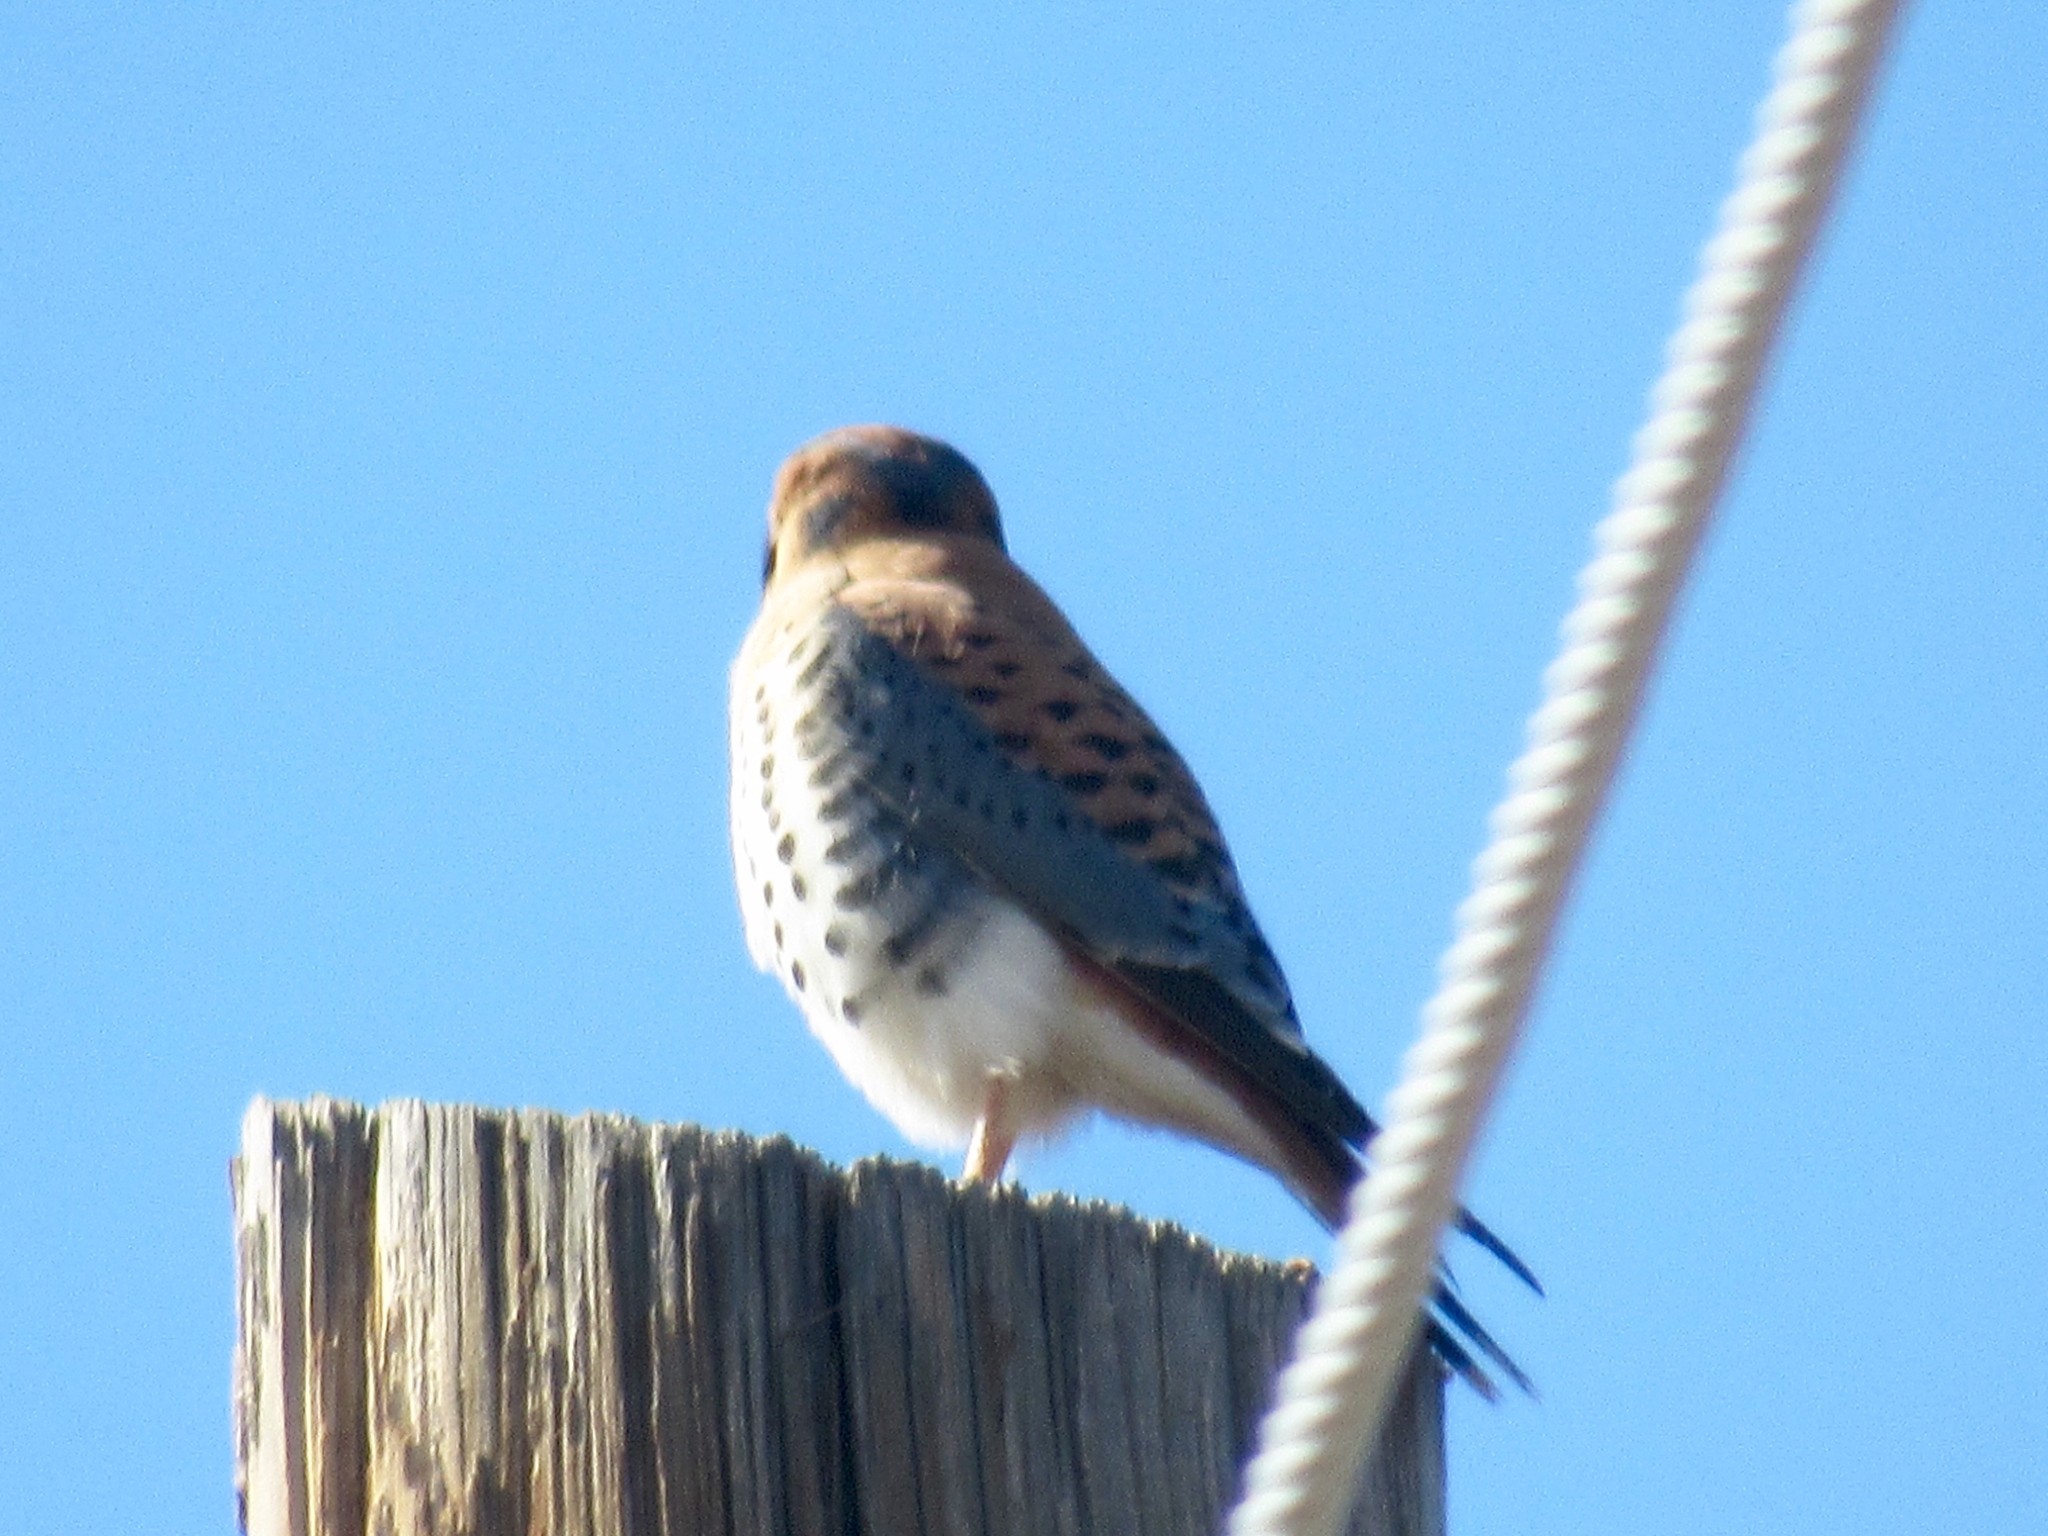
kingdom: Animalia
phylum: Chordata
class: Aves
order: Falconiformes
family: Falconidae
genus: Falco
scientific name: Falco sparverius
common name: American kestrel
